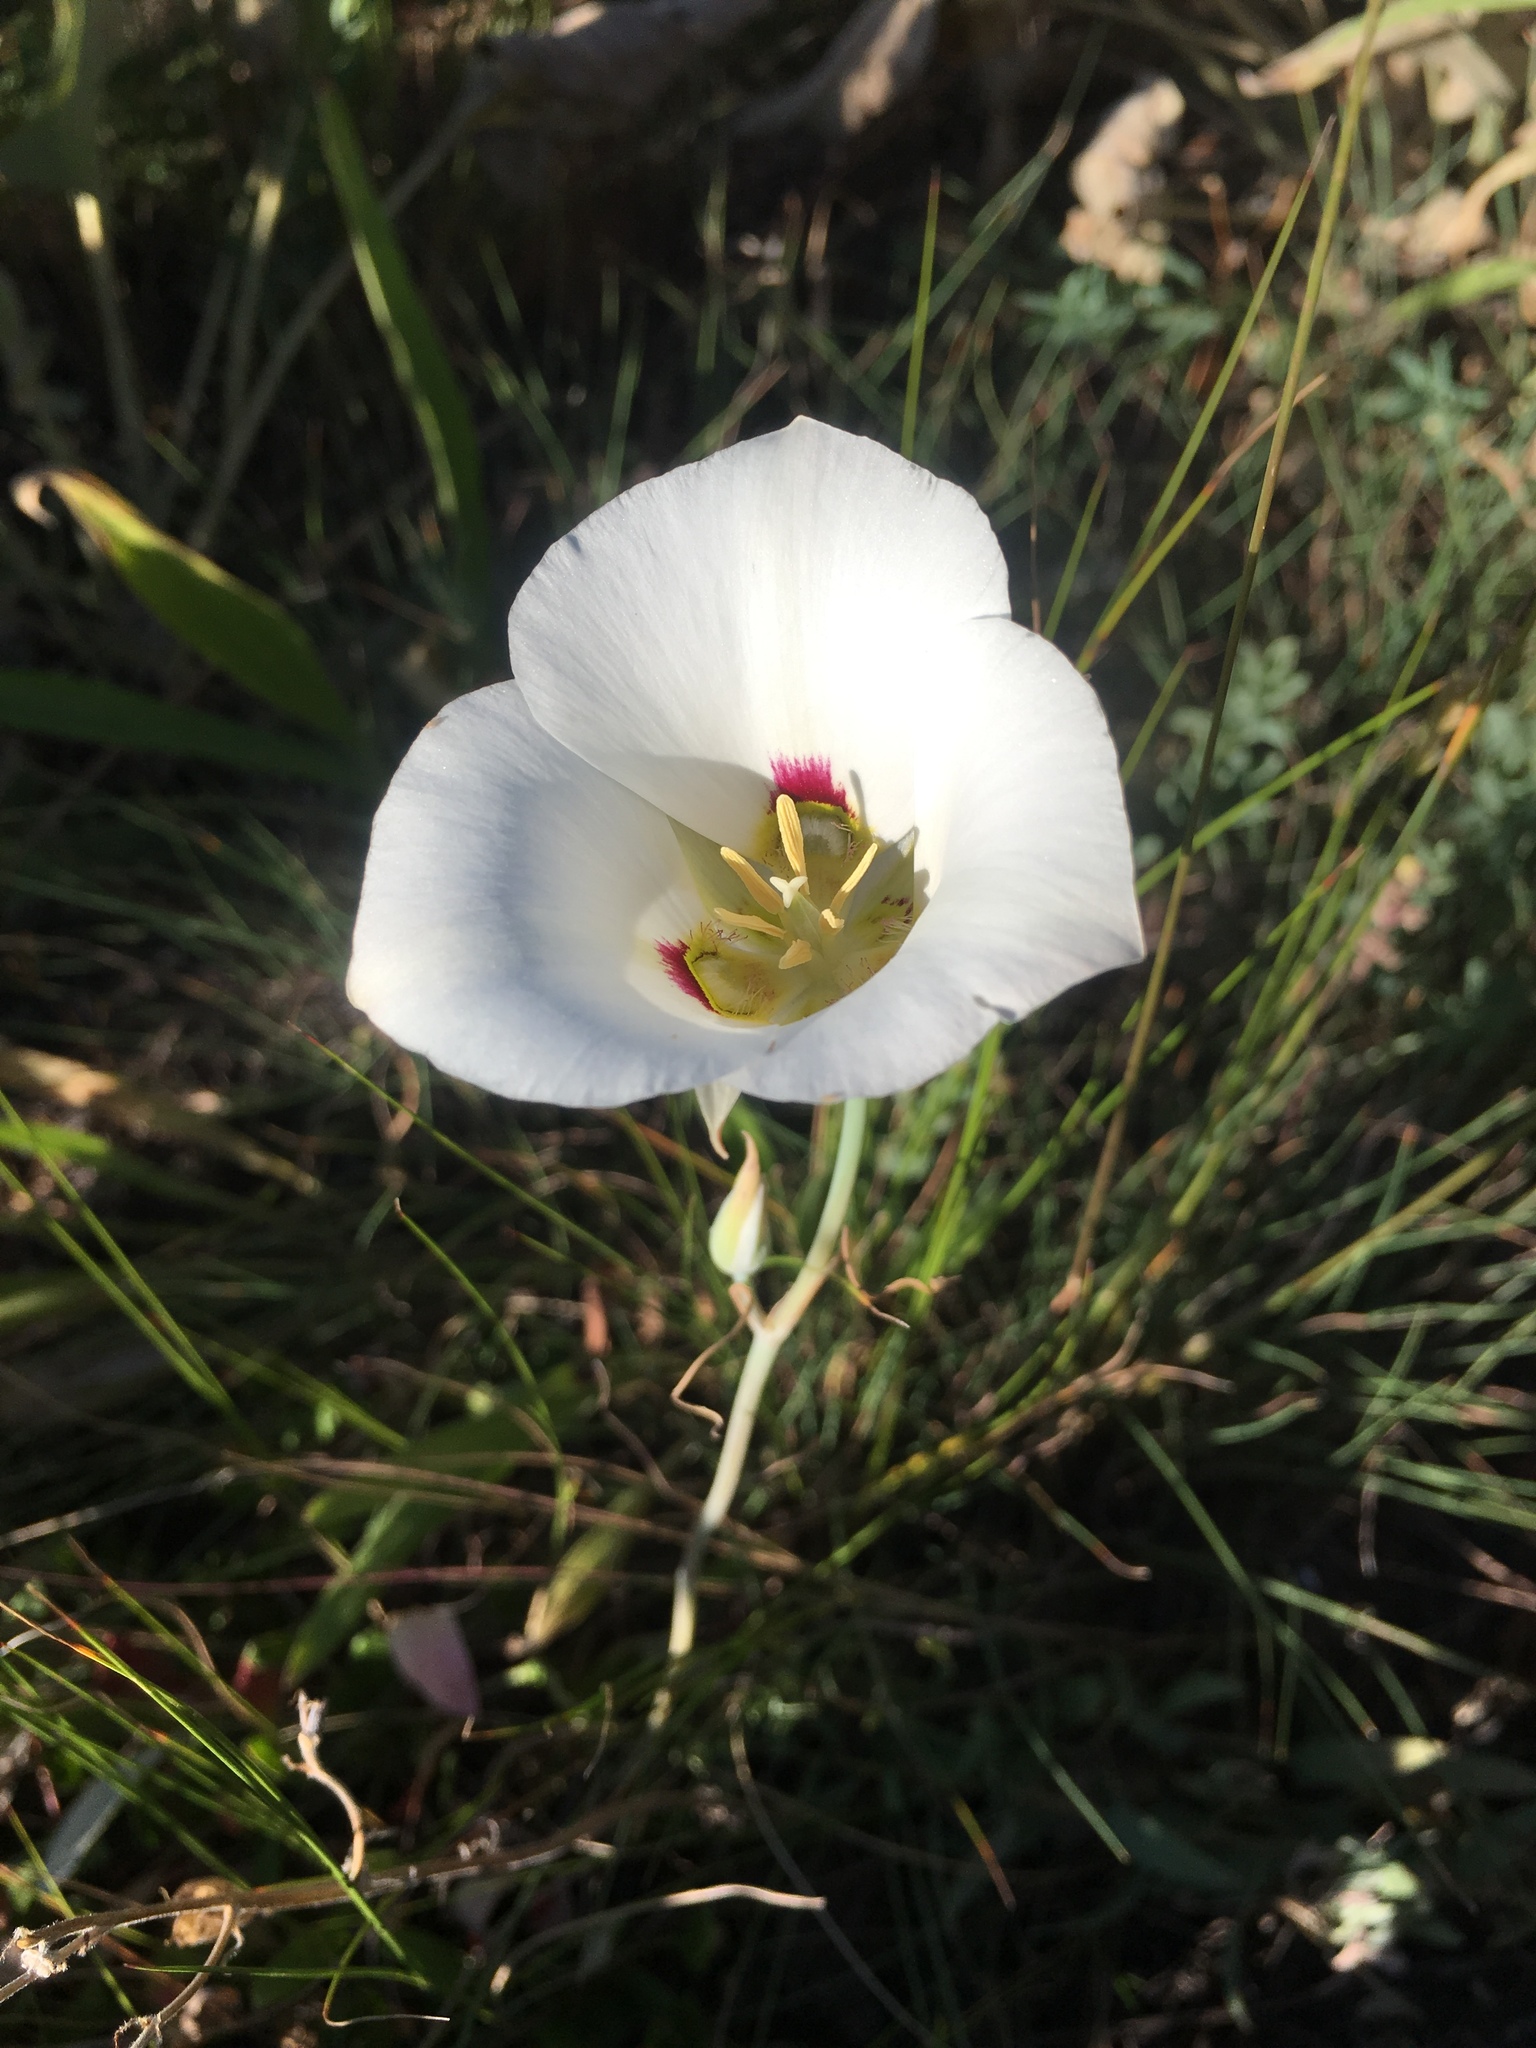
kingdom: Plantae
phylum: Tracheophyta
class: Liliopsida
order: Liliales
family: Liliaceae
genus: Calochortus
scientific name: Calochortus nuttallii
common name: Sego-lily
